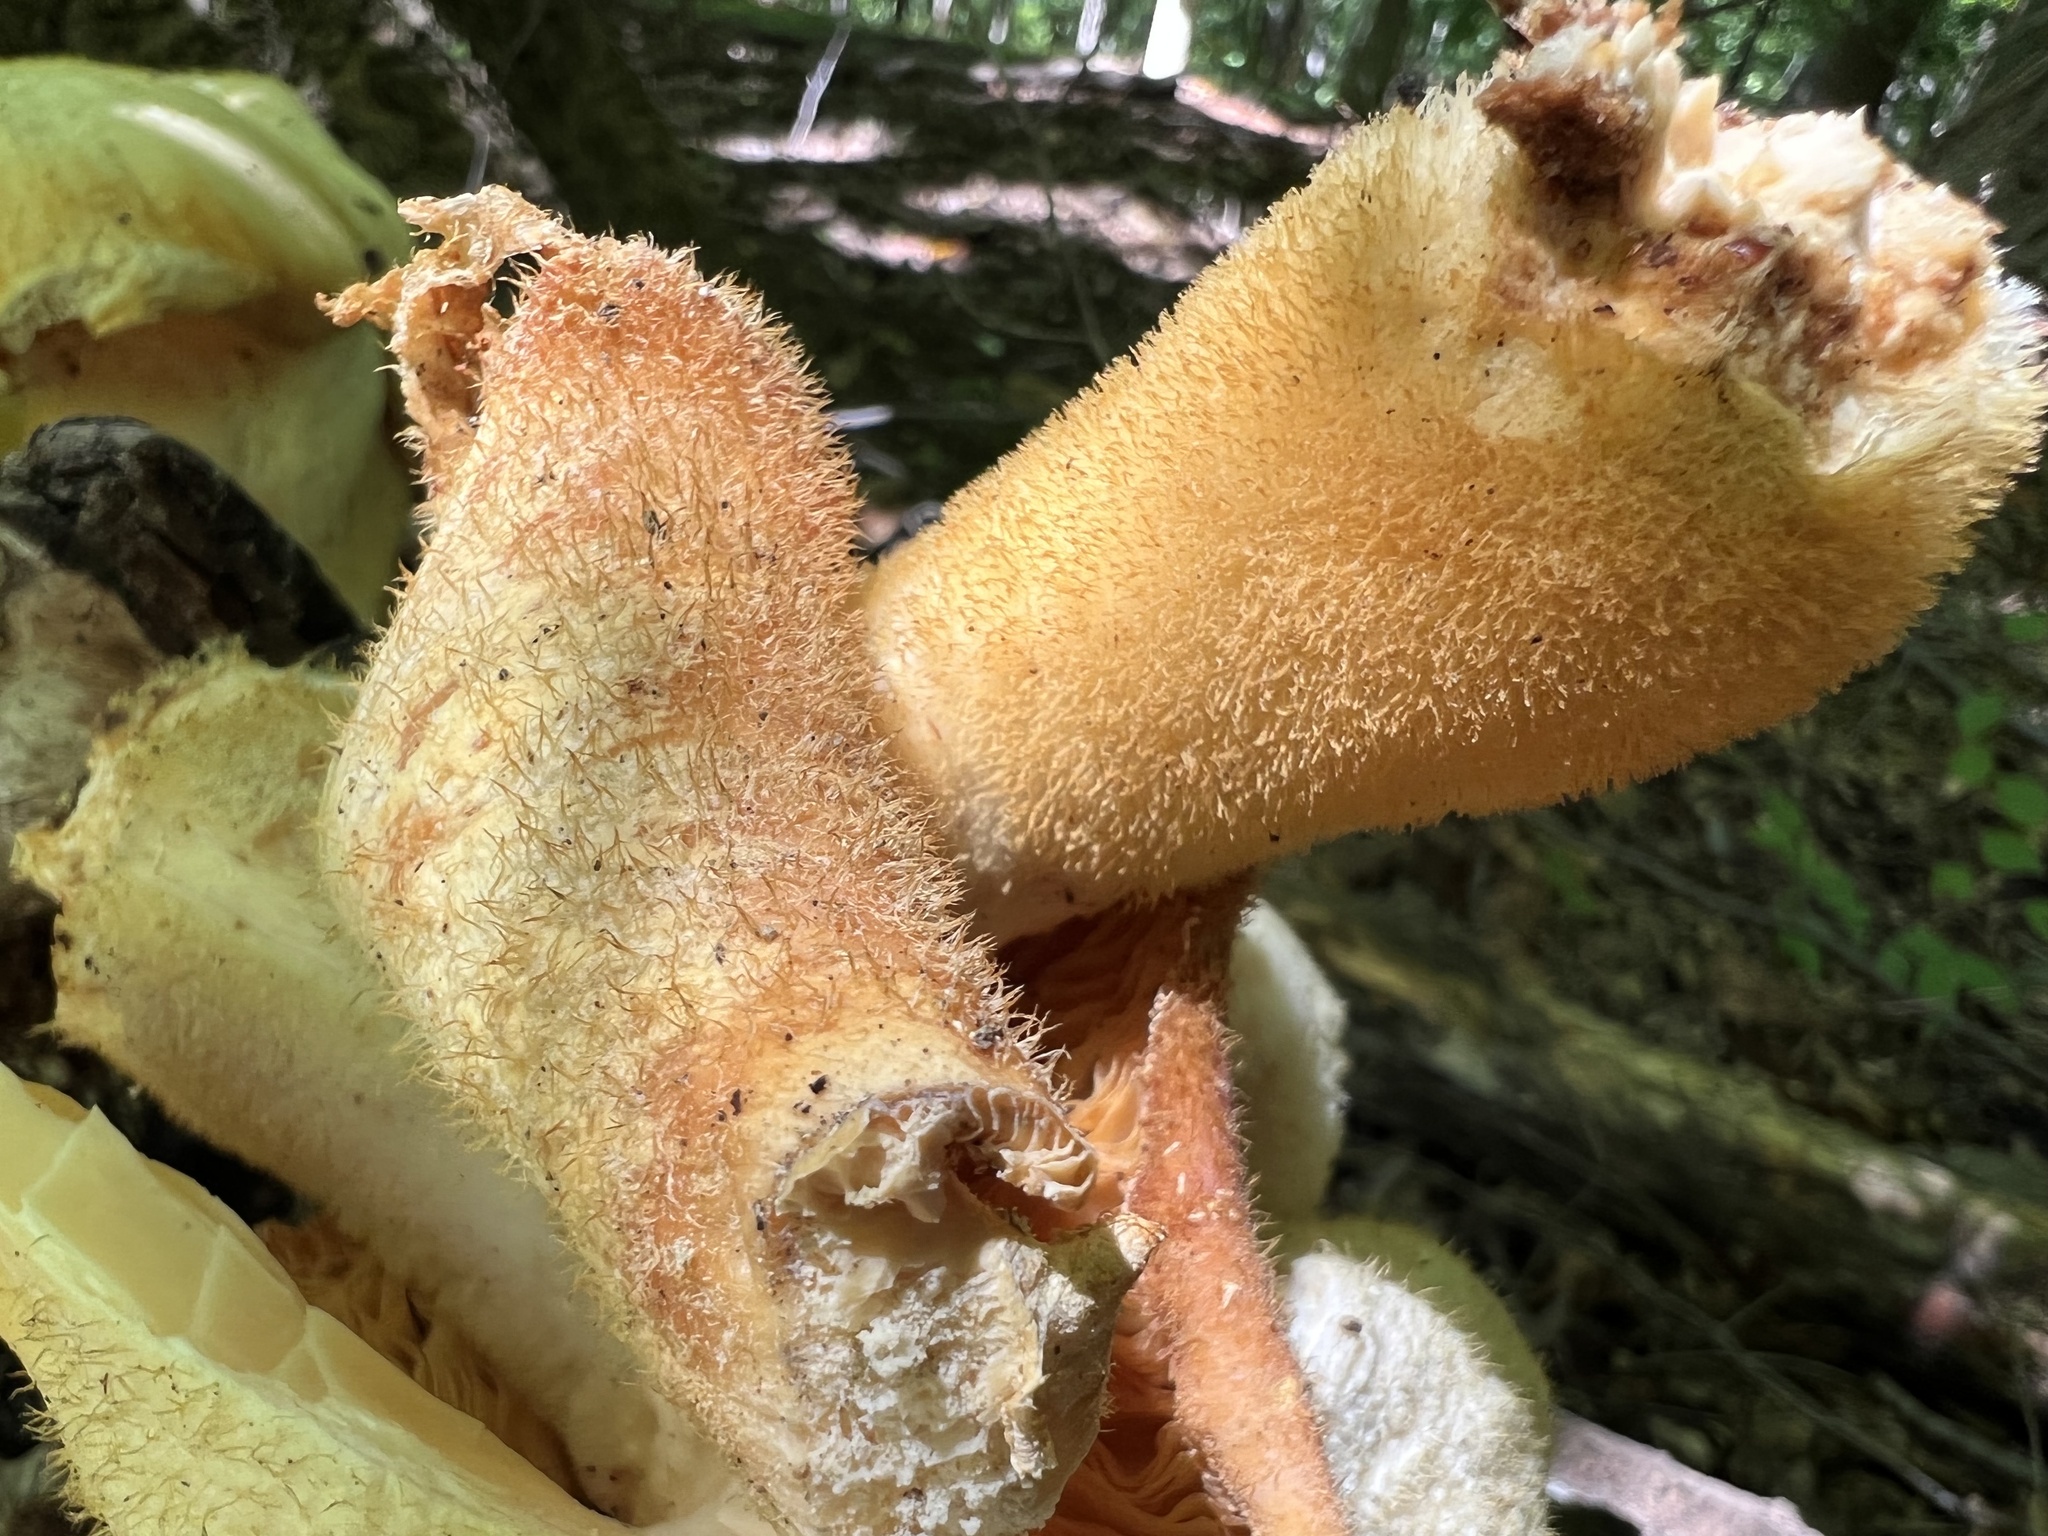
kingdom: Fungi
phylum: Basidiomycota
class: Agaricomycetes
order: Polyporales
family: Polyporaceae
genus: Lentinus
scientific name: Lentinus levis
